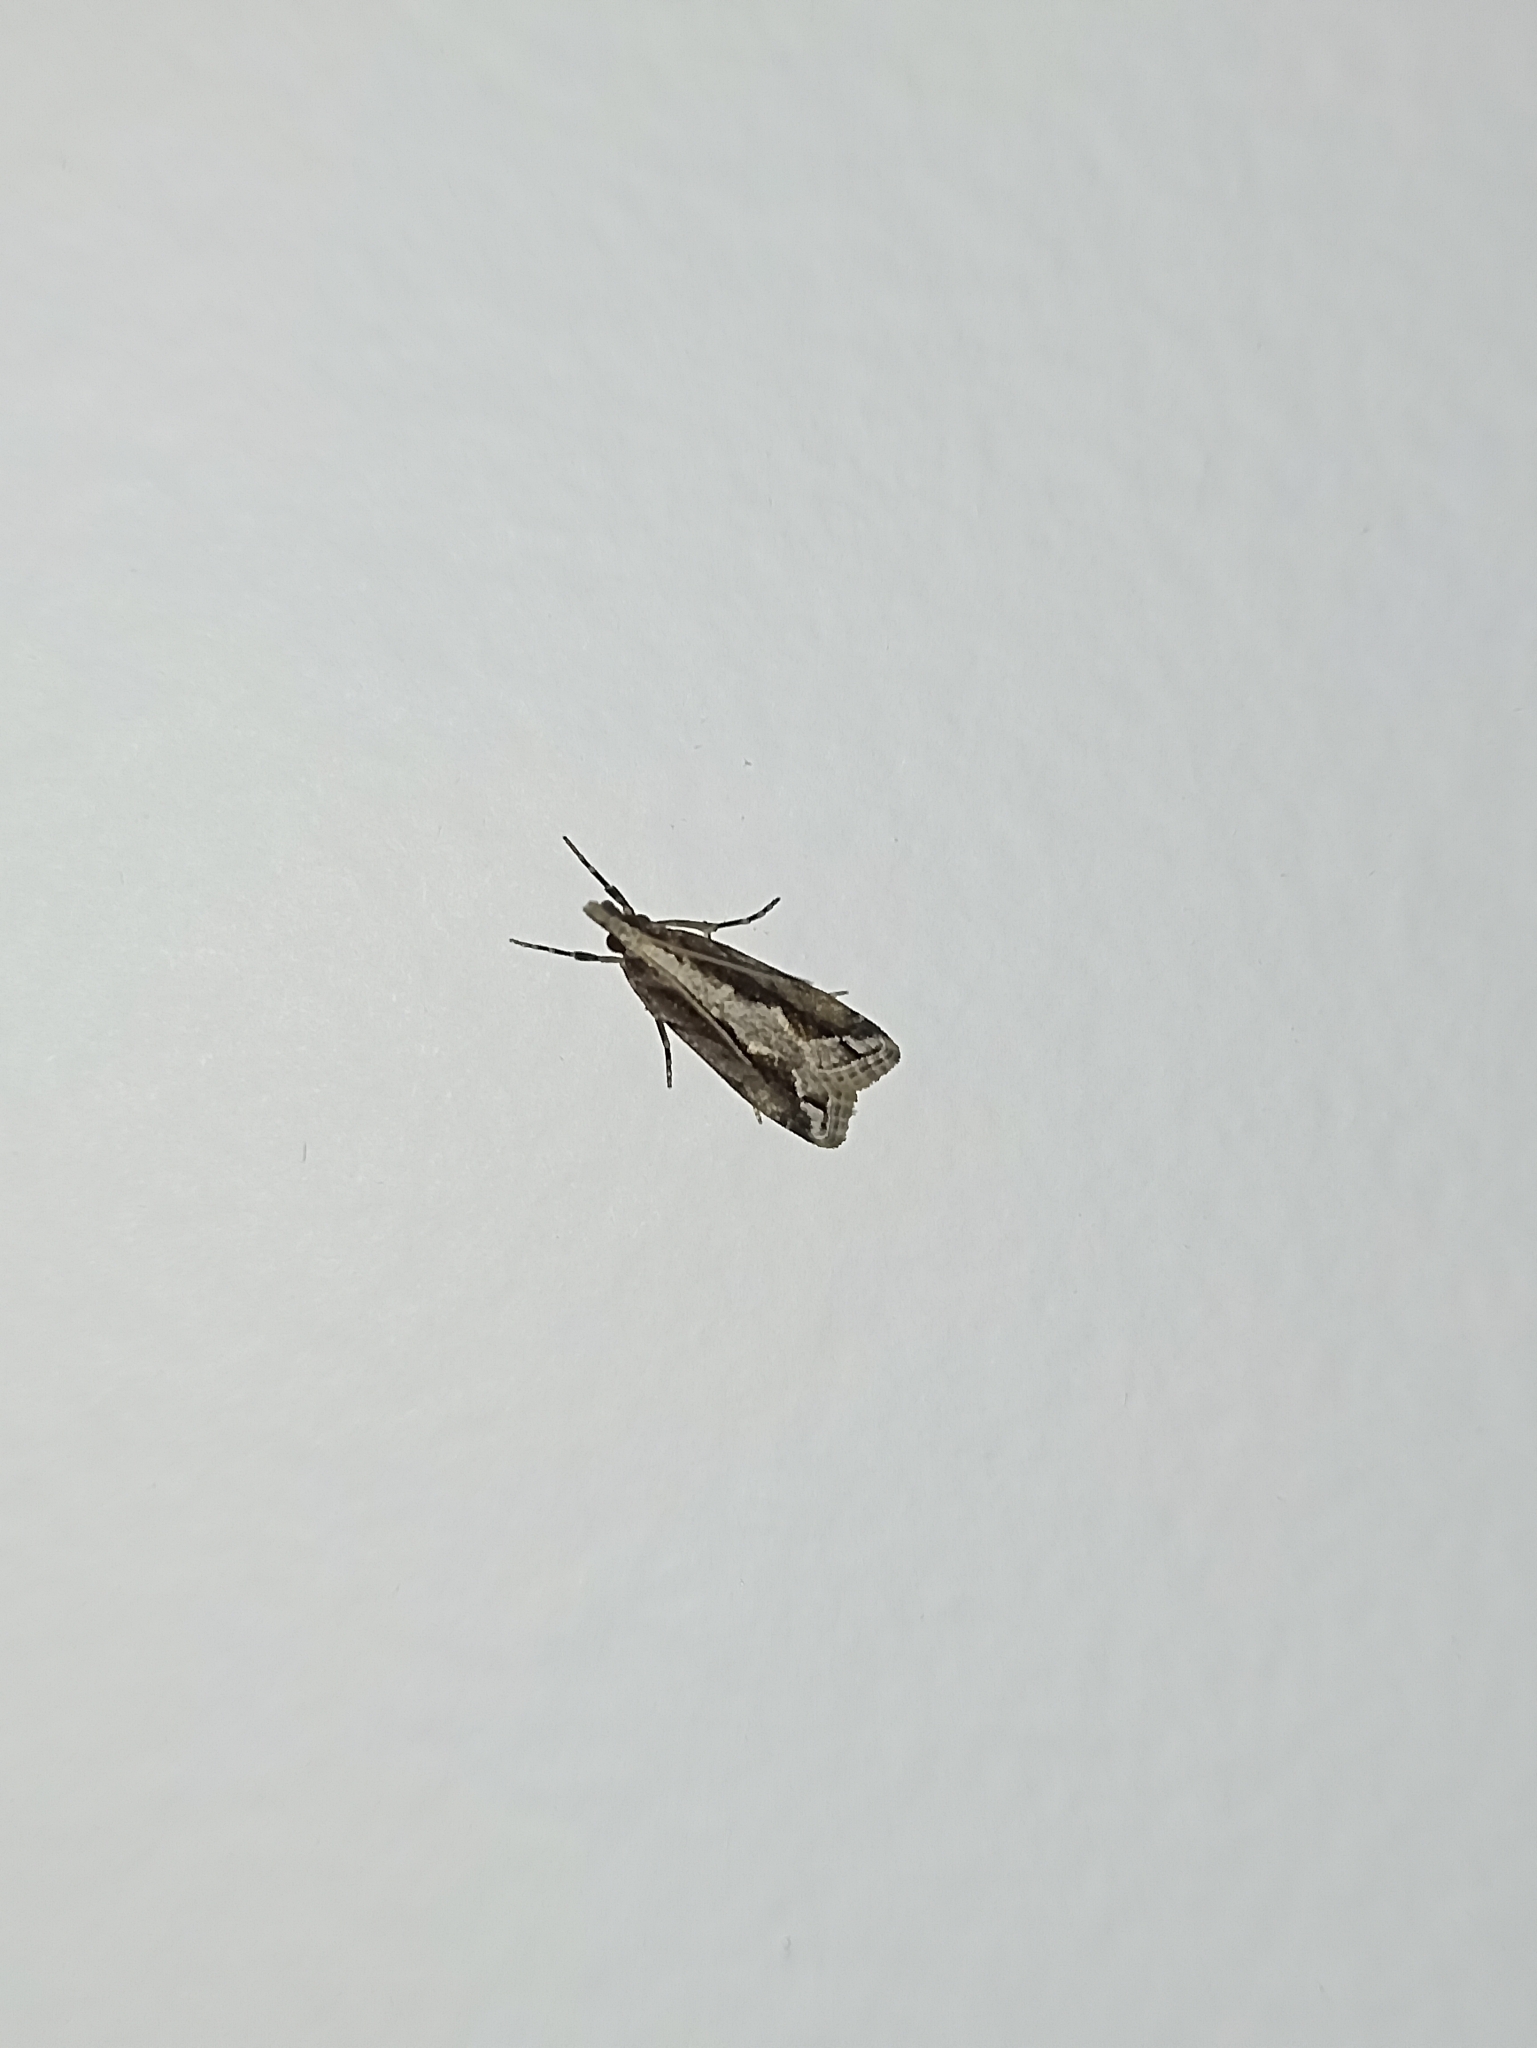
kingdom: Animalia
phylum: Arthropoda
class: Insecta
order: Lepidoptera
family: Crambidae
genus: Eudonia
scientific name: Eudonia steropaea
